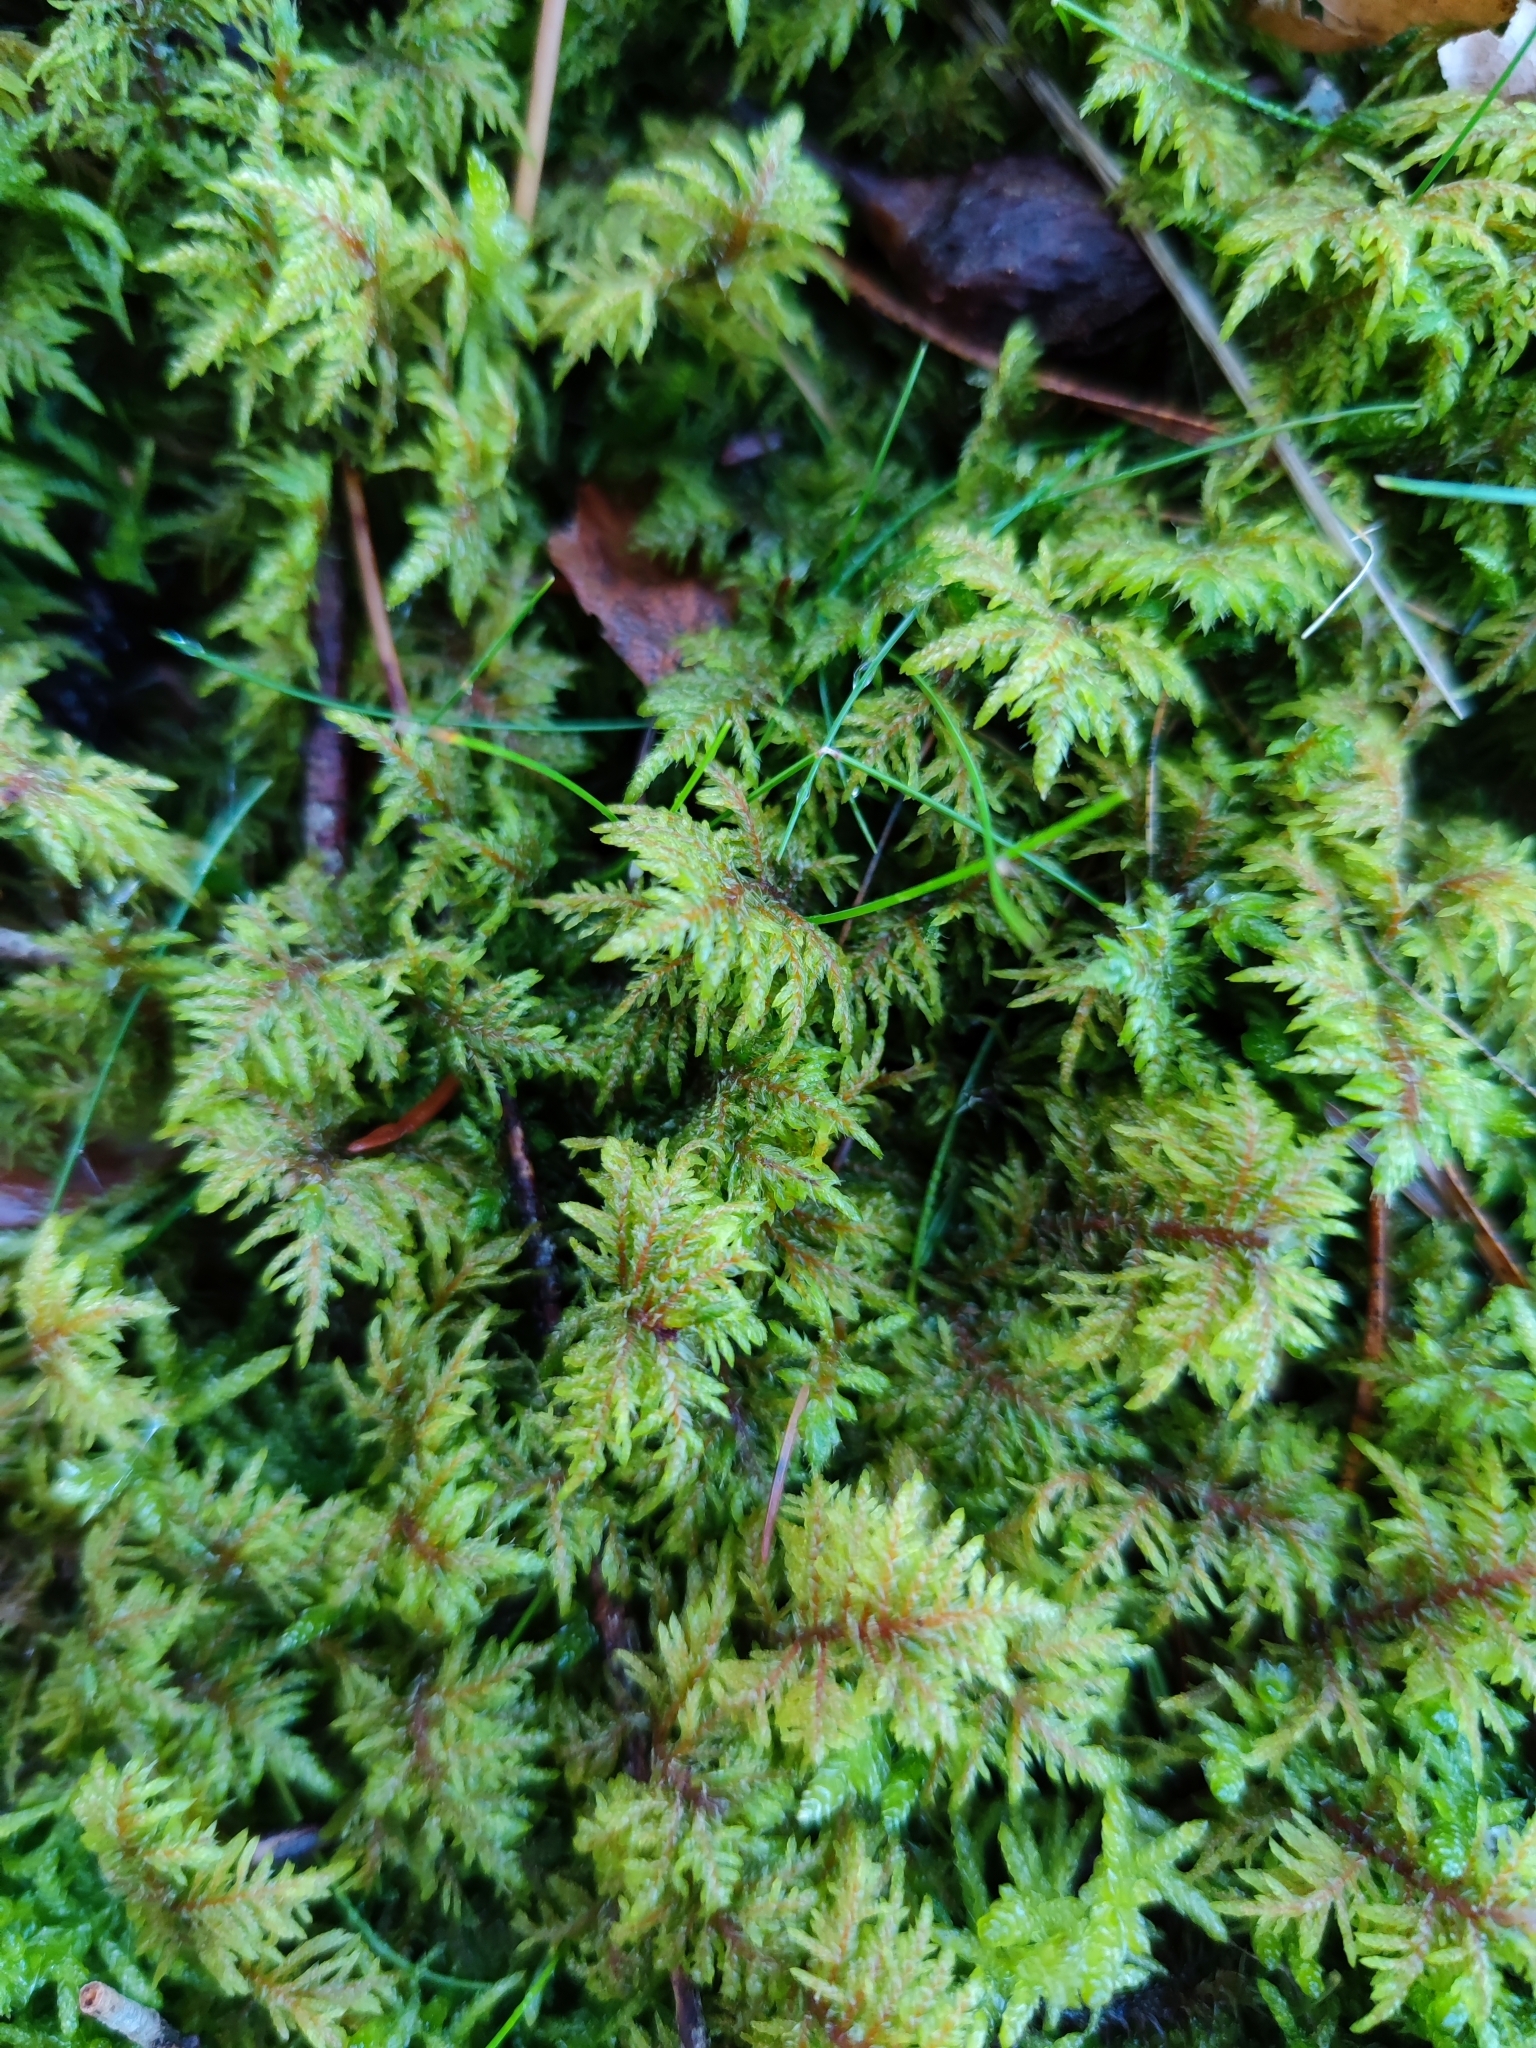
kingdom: Plantae
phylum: Bryophyta
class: Bryopsida
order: Hypnales
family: Hylocomiaceae
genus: Hylocomium
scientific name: Hylocomium splendens
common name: Stairstep moss
